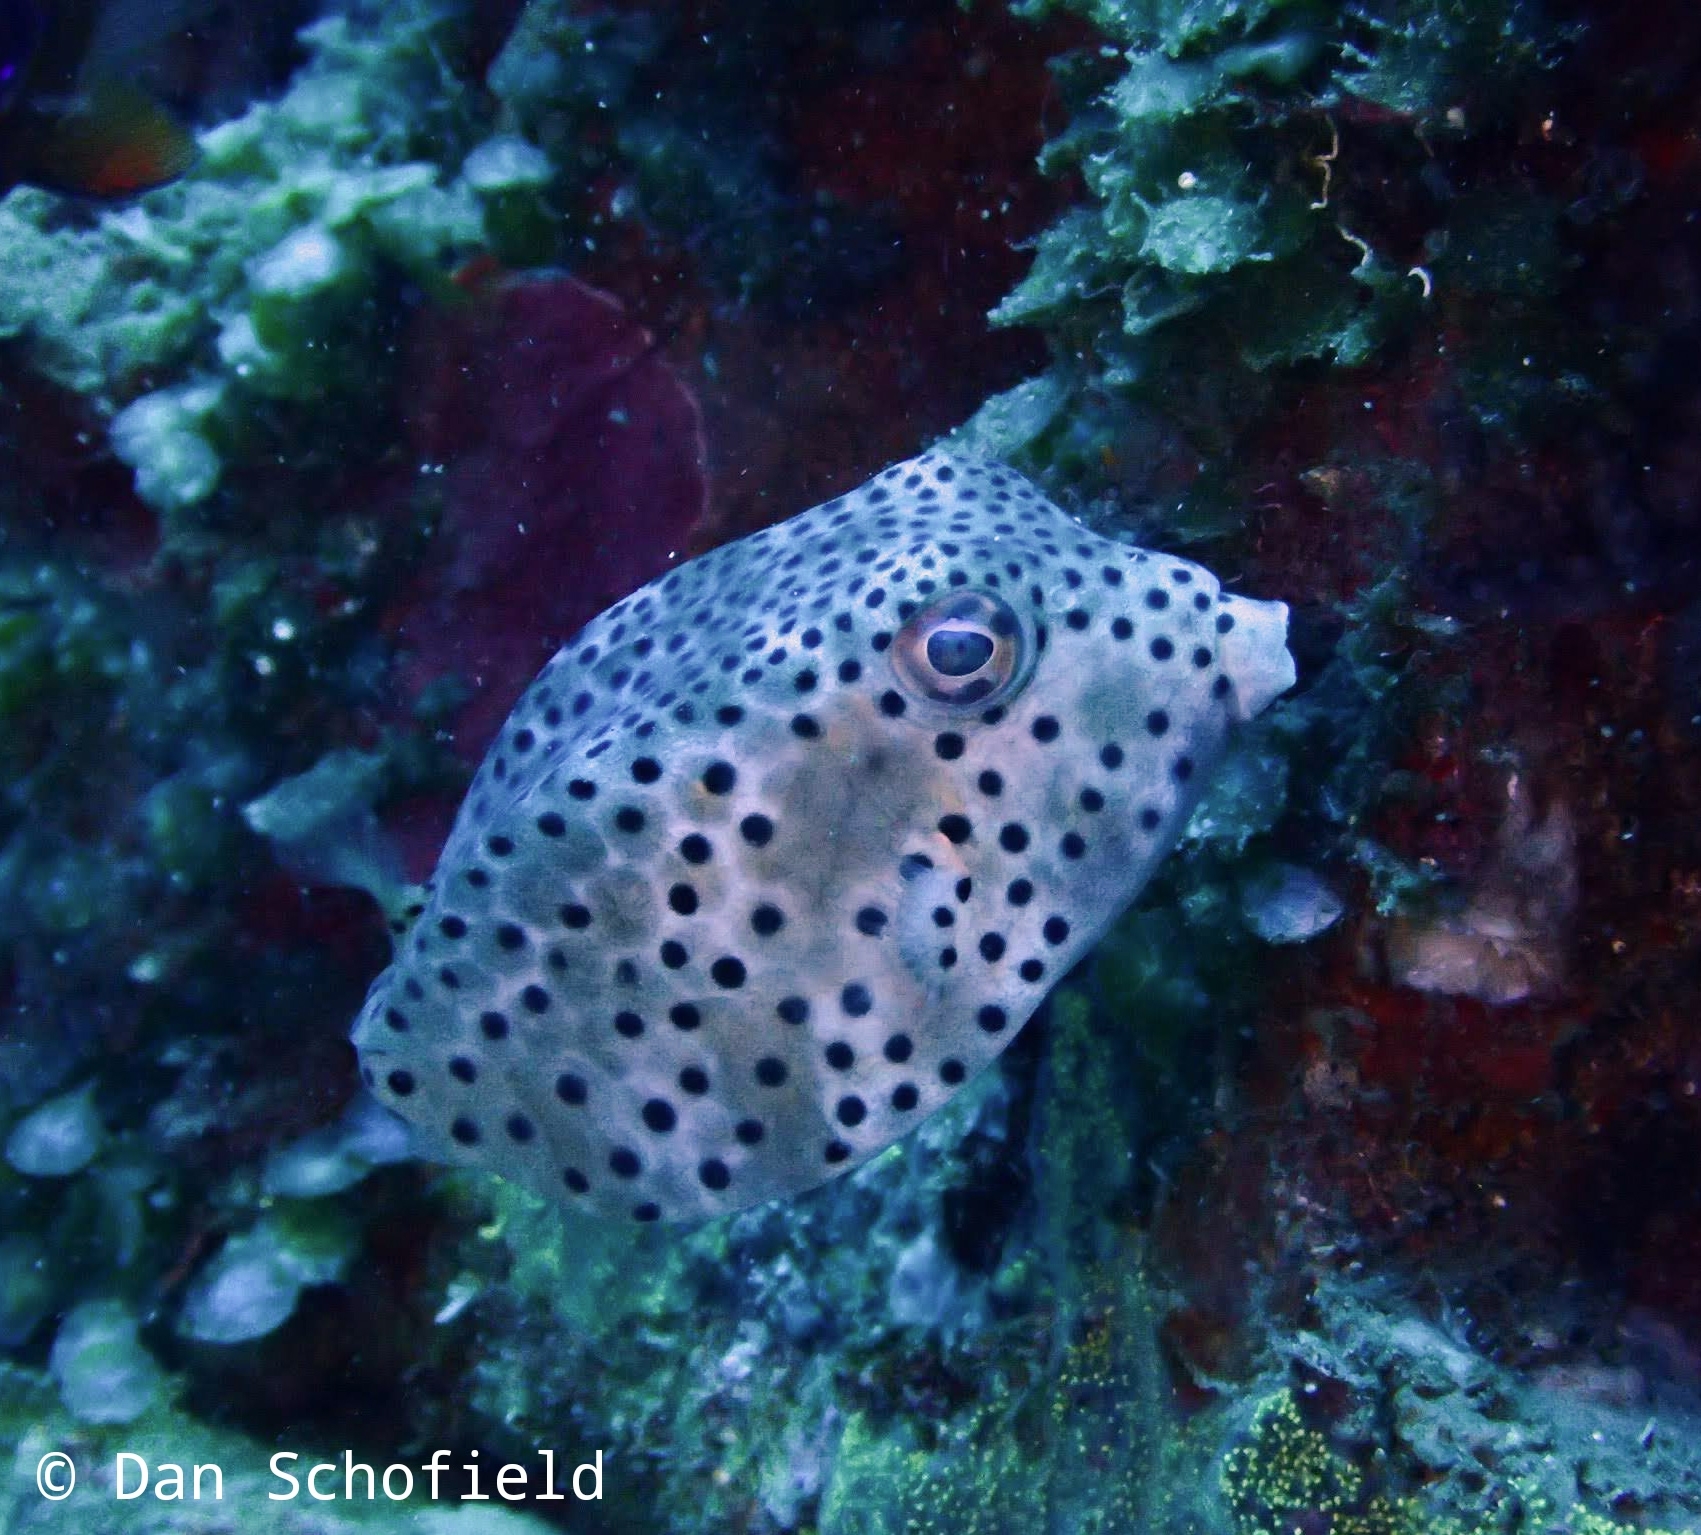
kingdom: Animalia
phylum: Chordata
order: Tetraodontiformes
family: Ostraciidae
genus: Ostracion
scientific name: Ostracion rhinorhynchos
